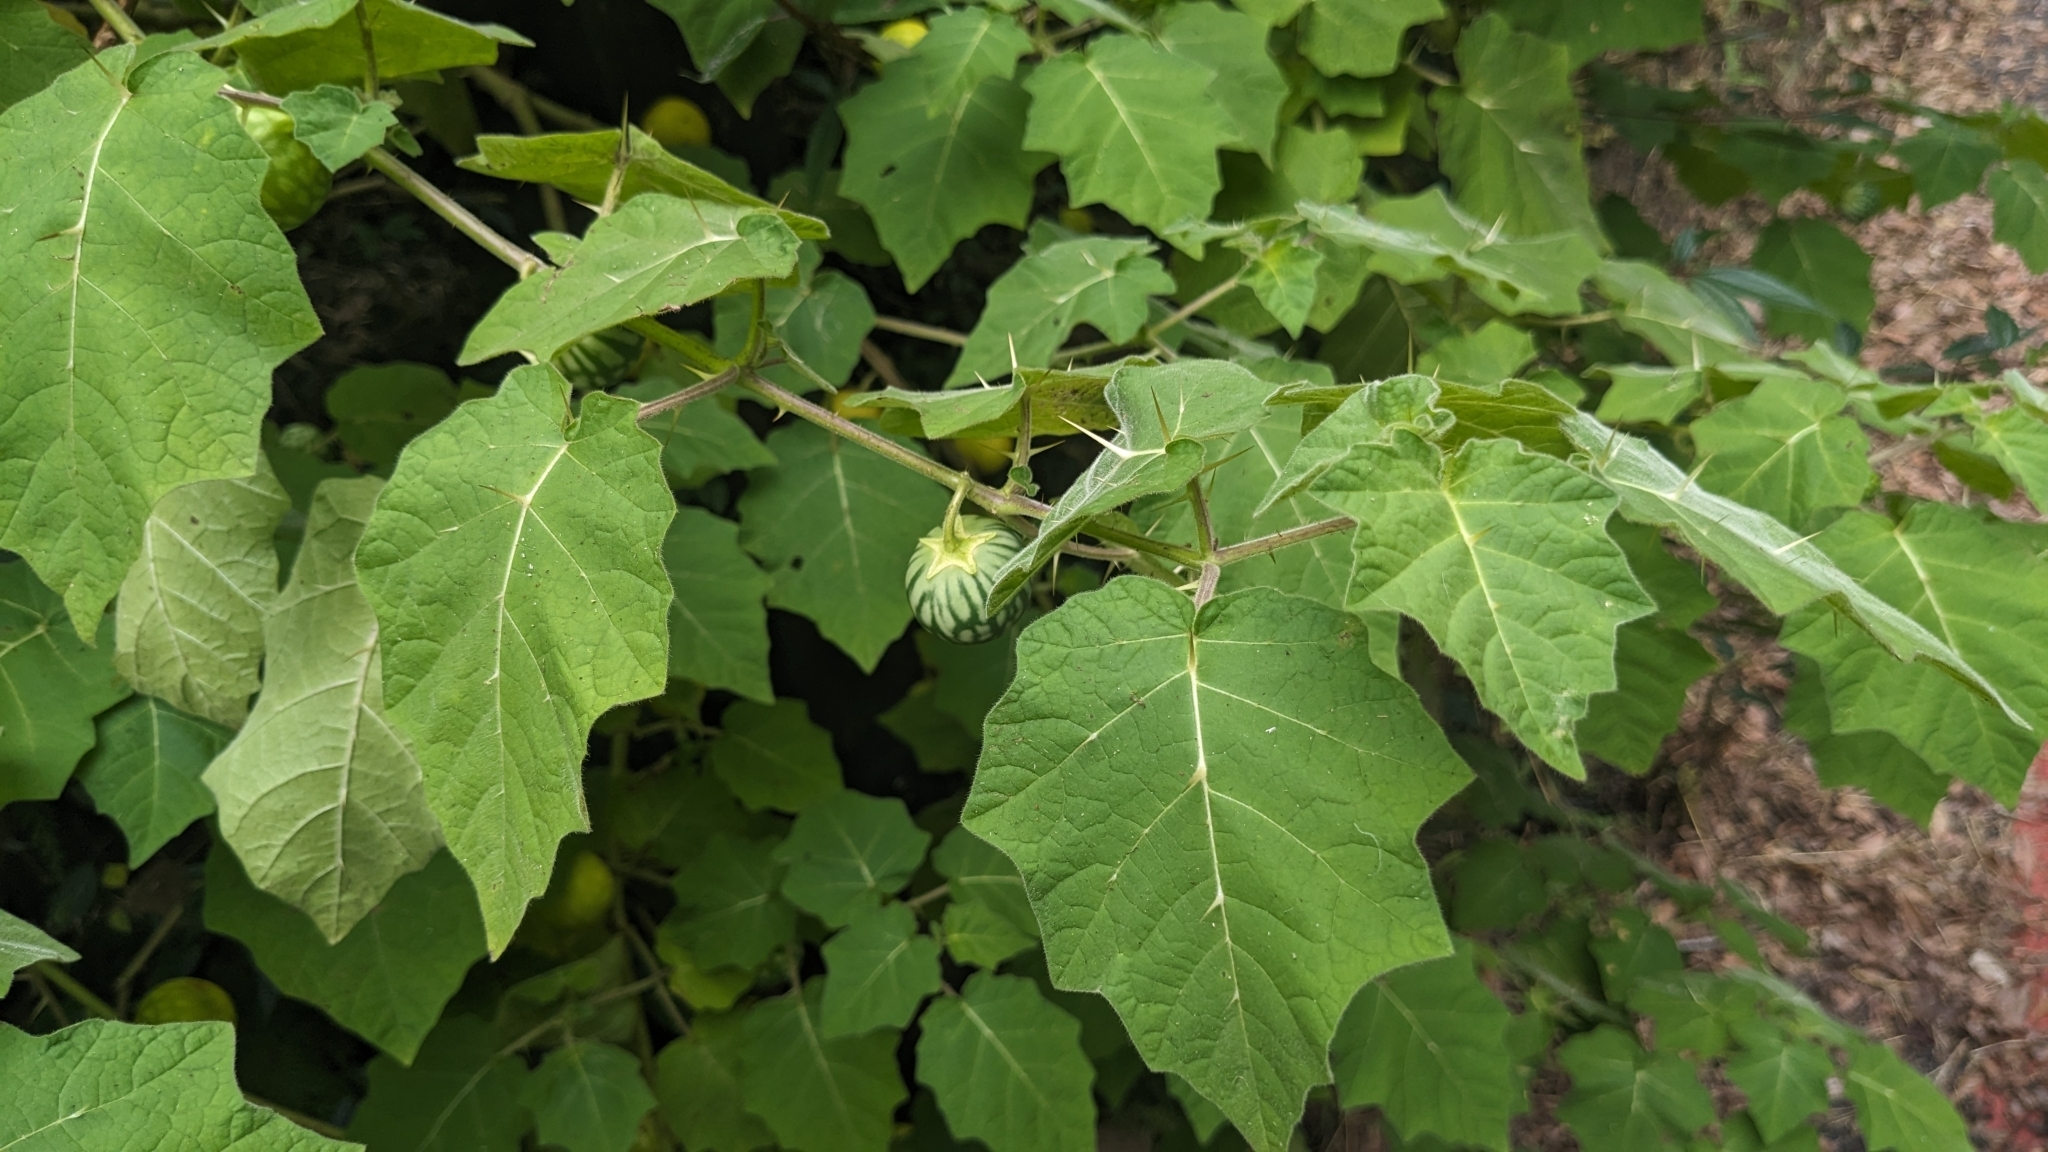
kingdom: Plantae
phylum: Tracheophyta
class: Magnoliopsida
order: Solanales
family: Solanaceae
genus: Solanum
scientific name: Solanum viarum
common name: Tropical soda apple
